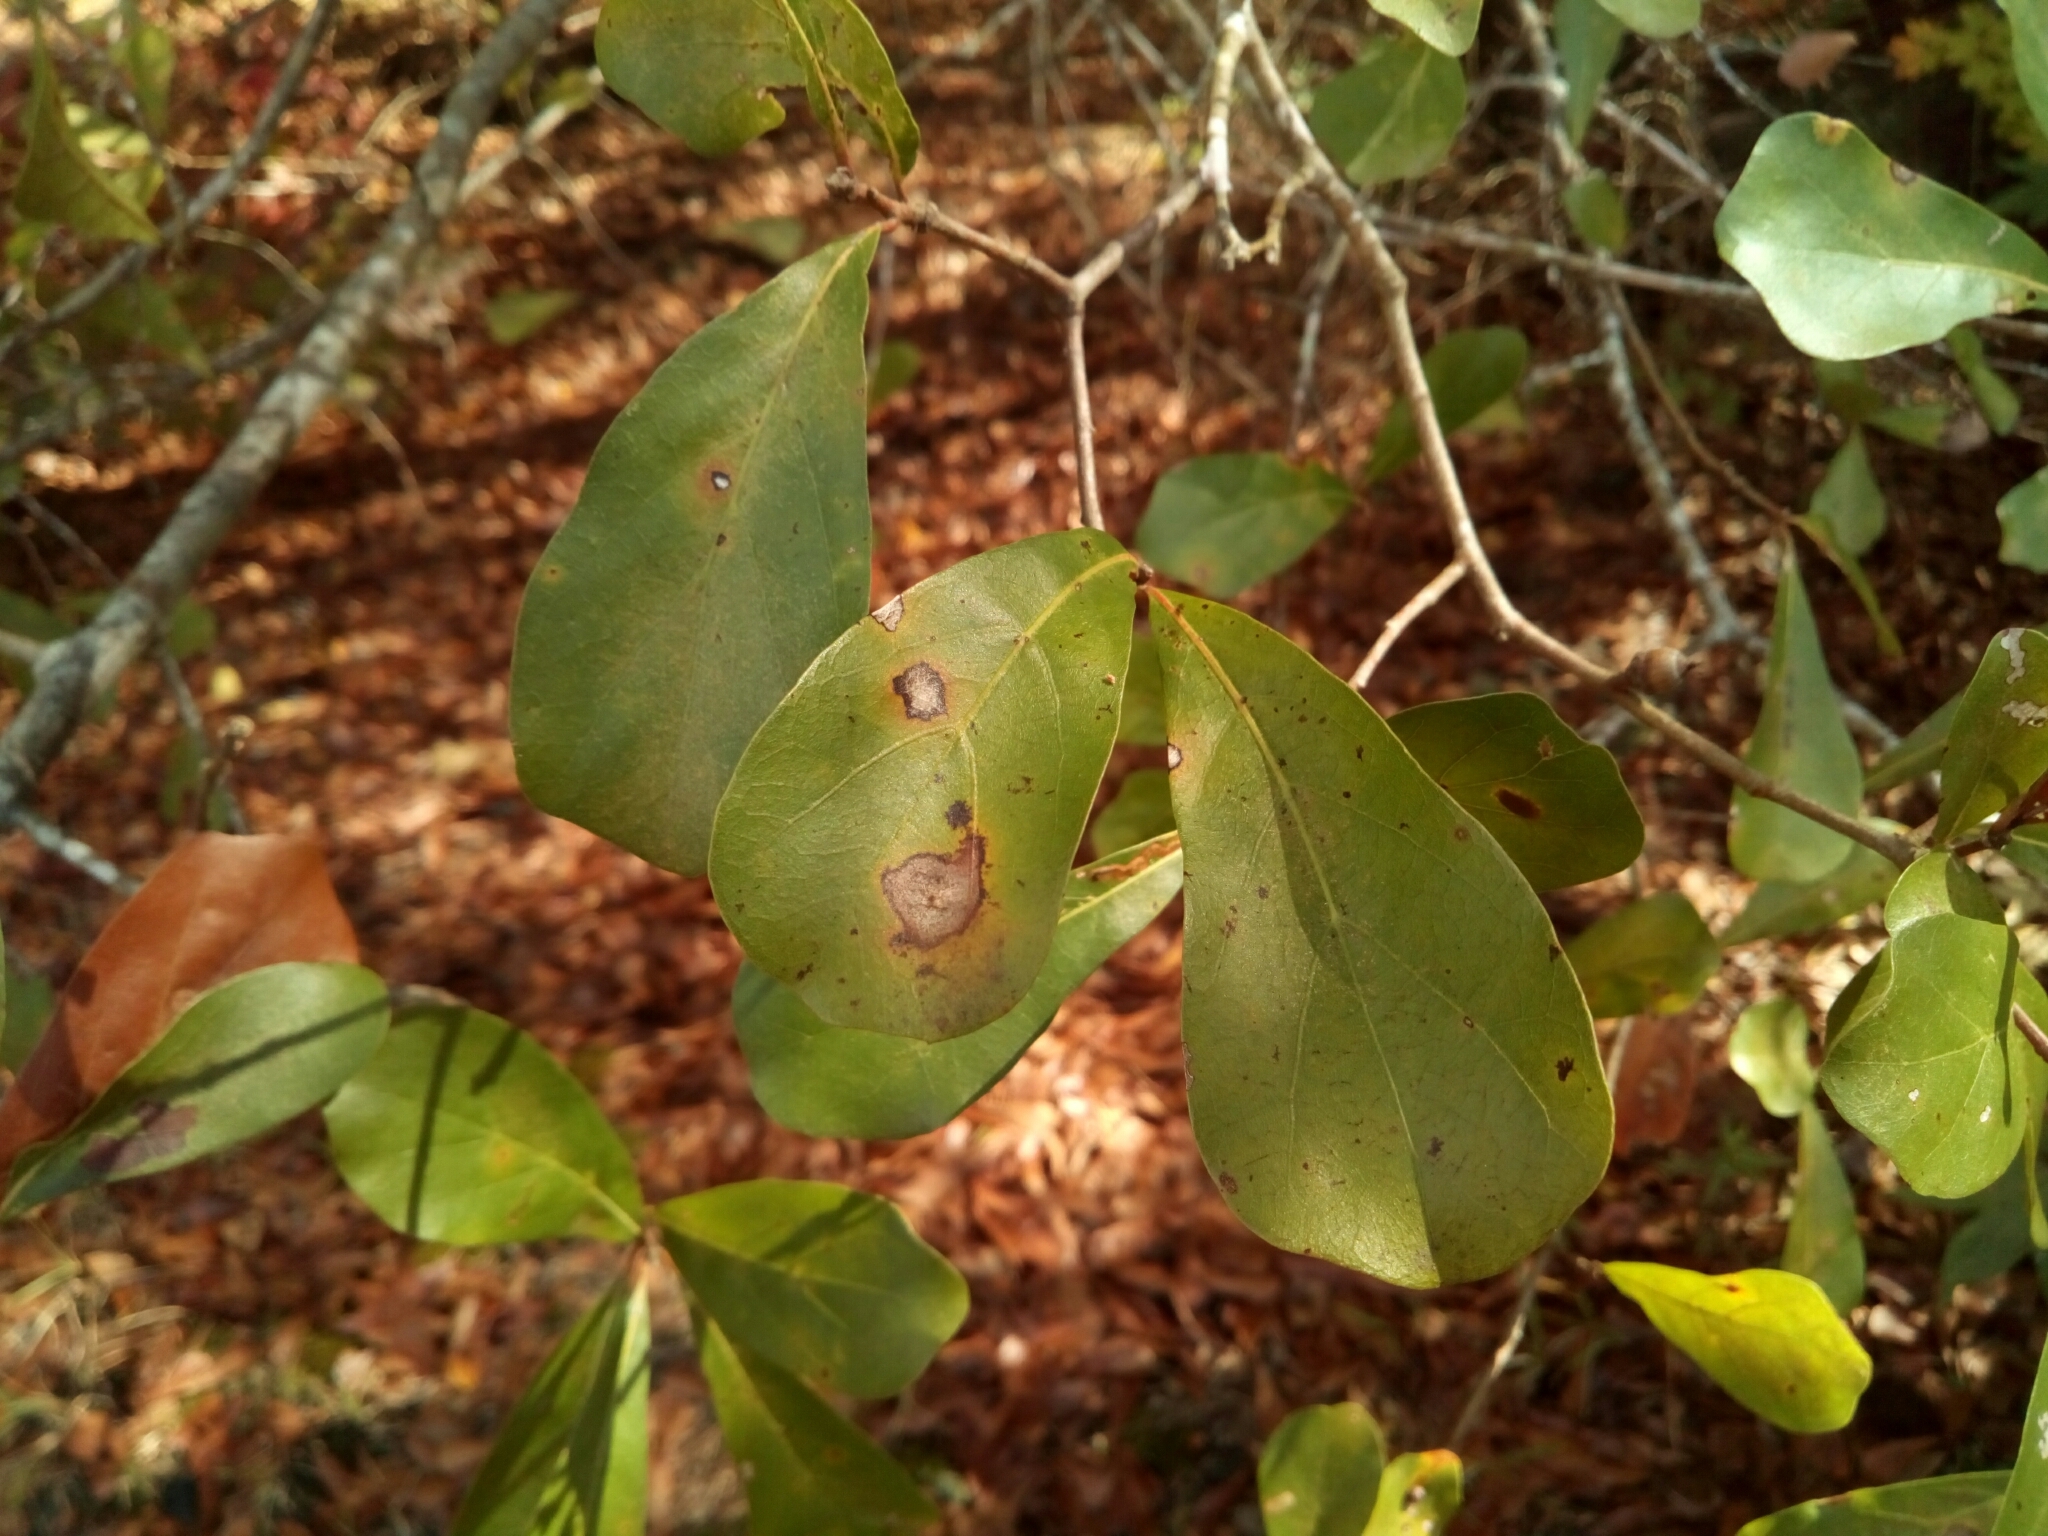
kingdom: Plantae
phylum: Tracheophyta
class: Magnoliopsida
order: Fagales
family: Fagaceae
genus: Quercus
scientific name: Quercus nigra
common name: Water oak
